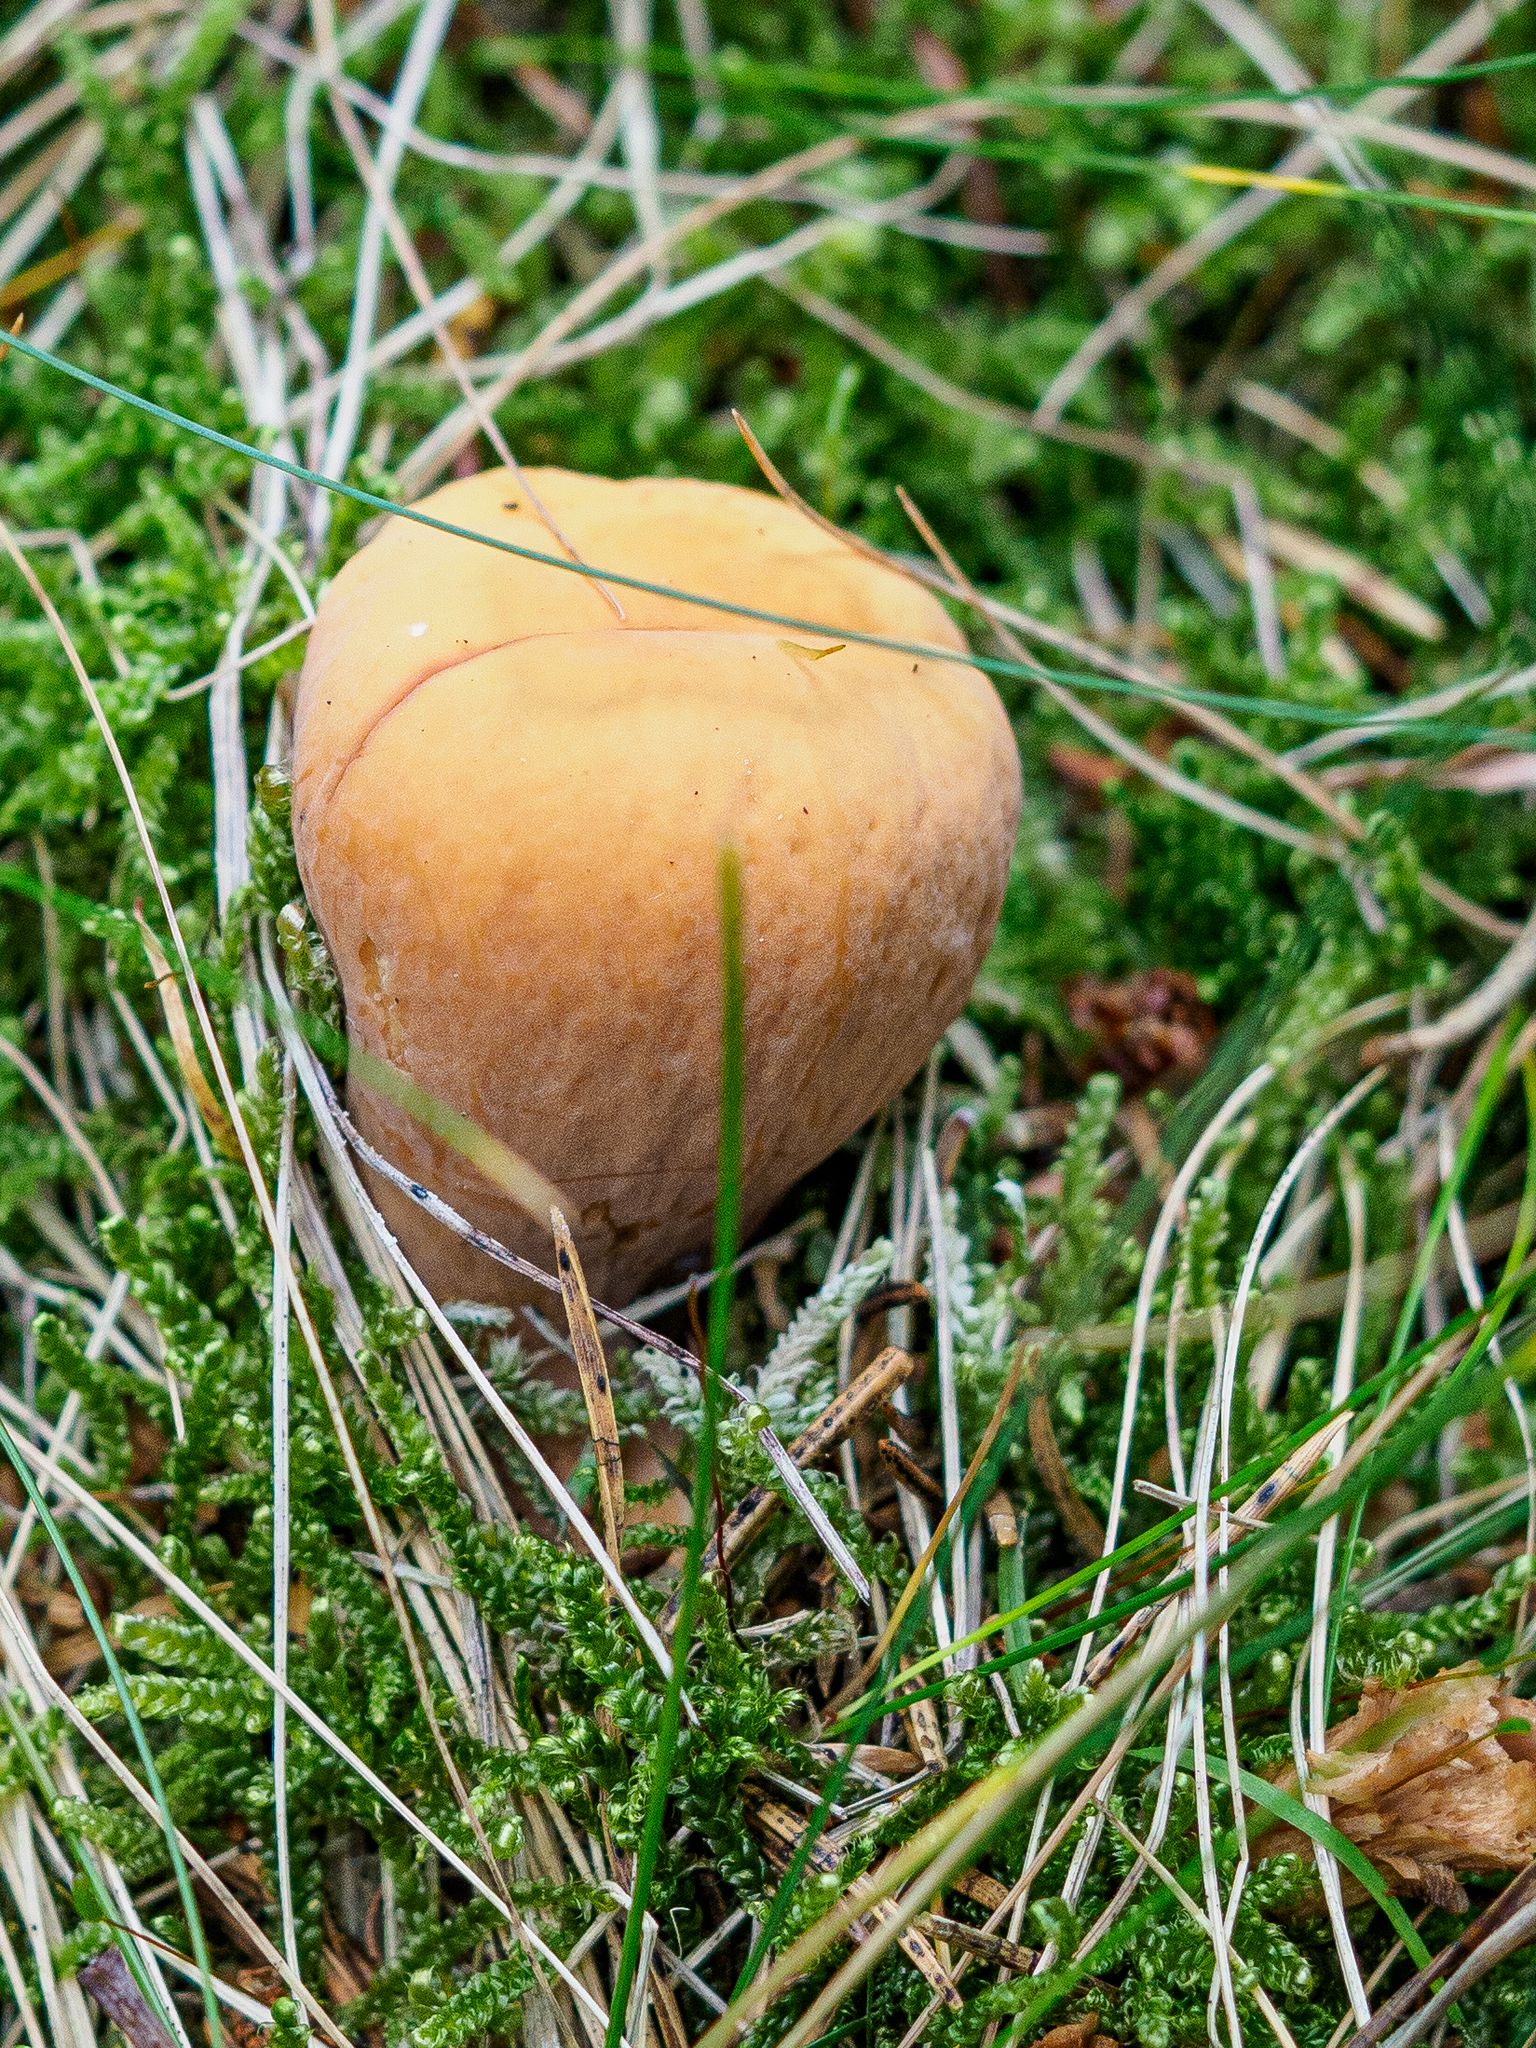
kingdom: Fungi
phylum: Basidiomycota
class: Agaricomycetes
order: Gomphales
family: Clavariadelphaceae
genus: Clavariadelphus
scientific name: Clavariadelphus pistillaris
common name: Giant club
